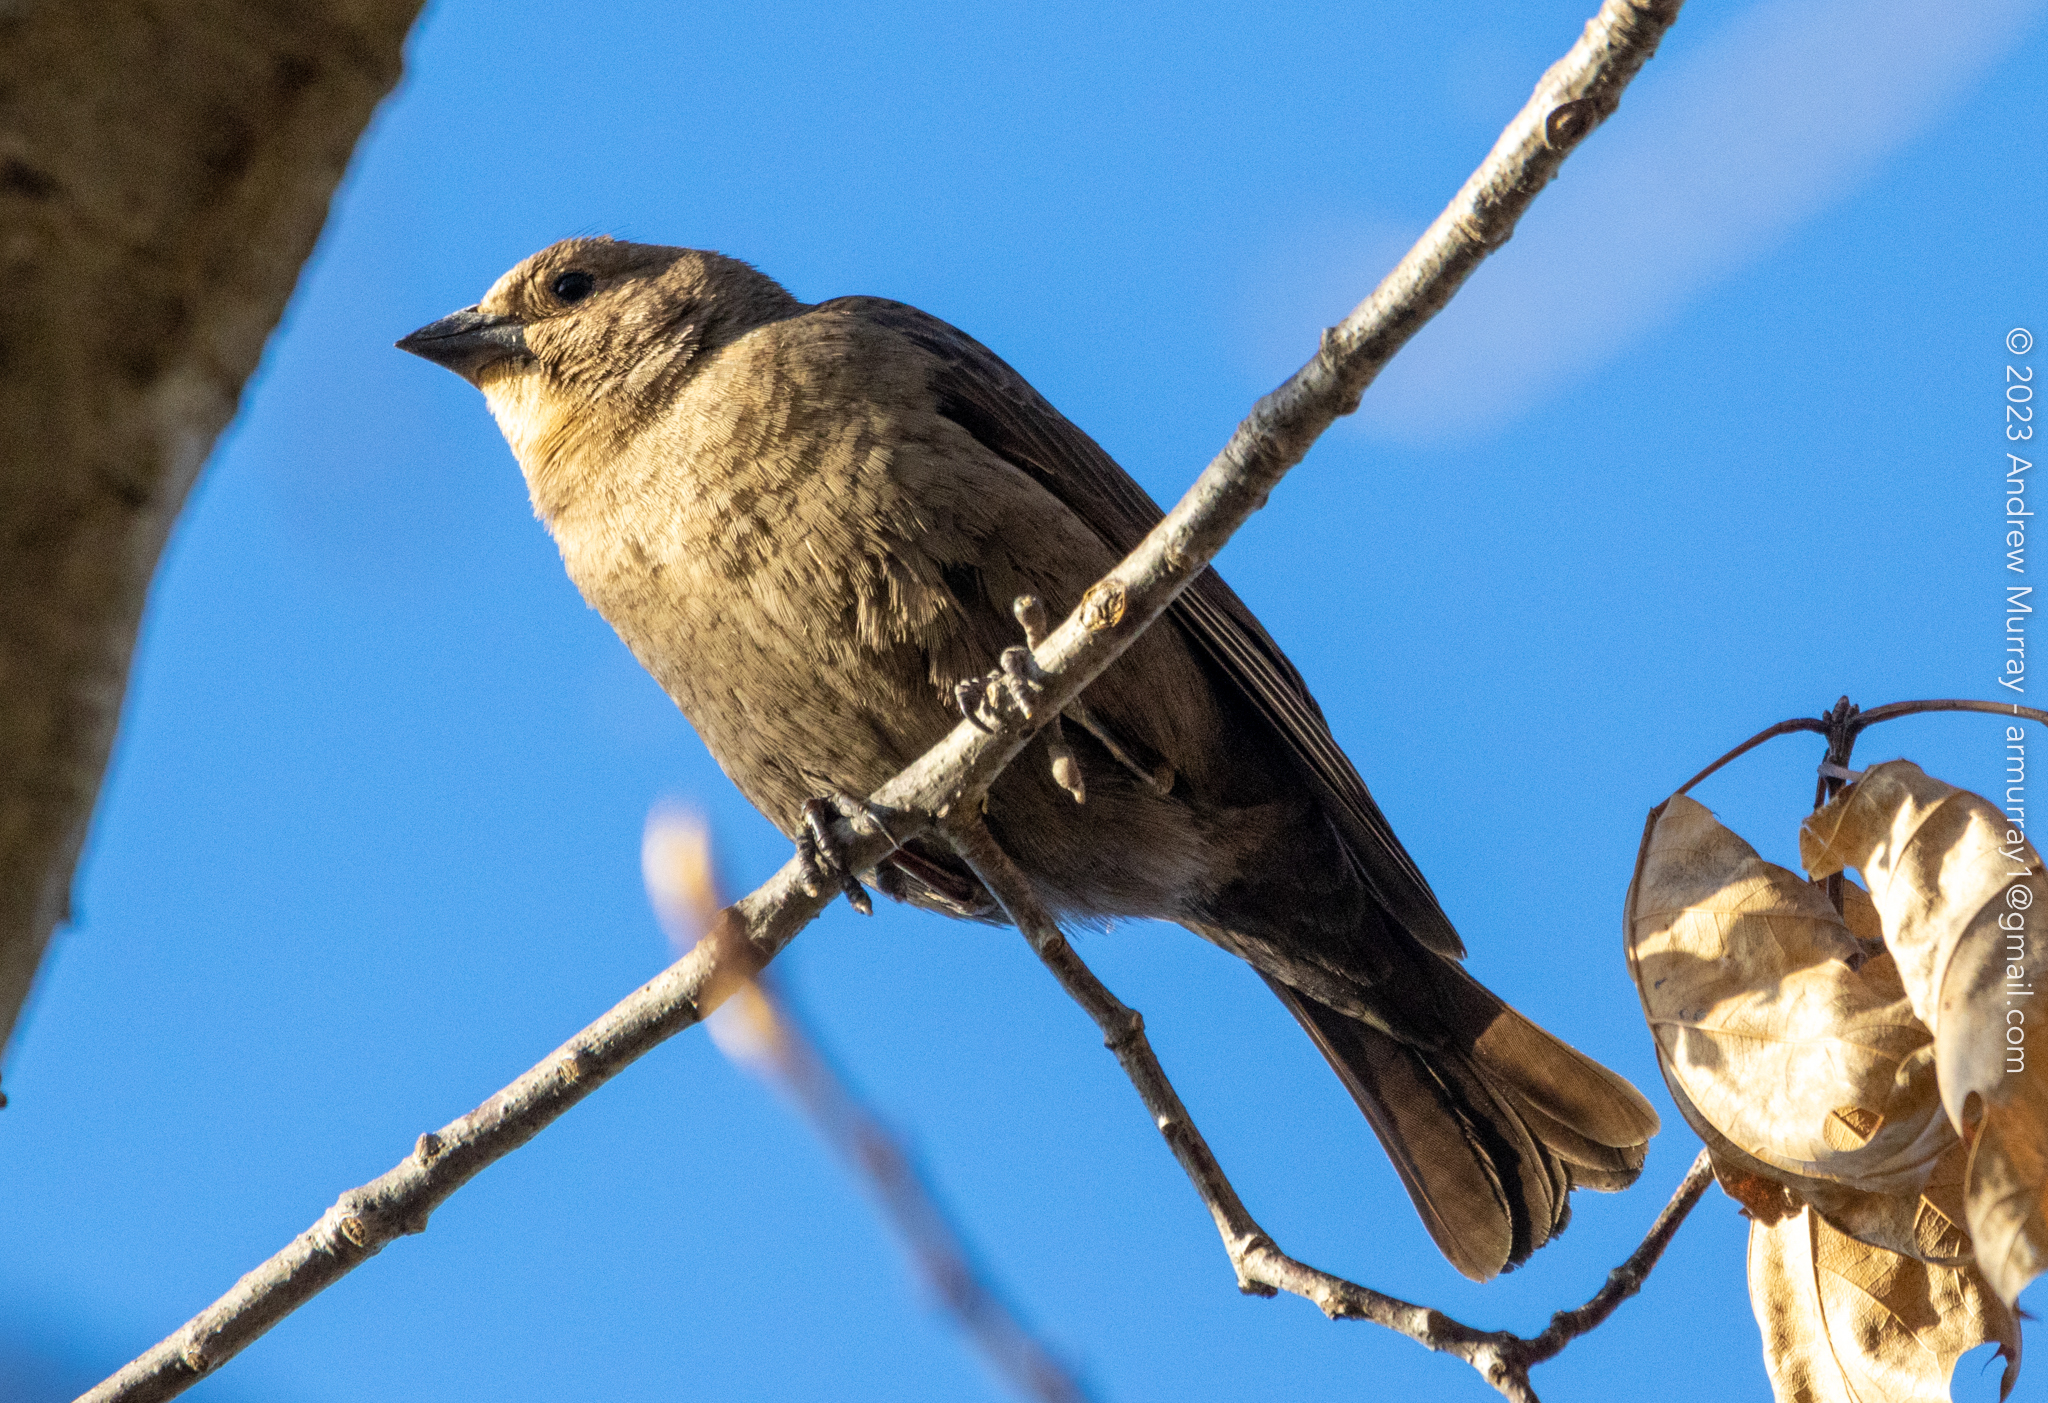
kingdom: Animalia
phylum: Chordata
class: Aves
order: Passeriformes
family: Icteridae
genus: Molothrus
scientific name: Molothrus ater
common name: Brown-headed cowbird
